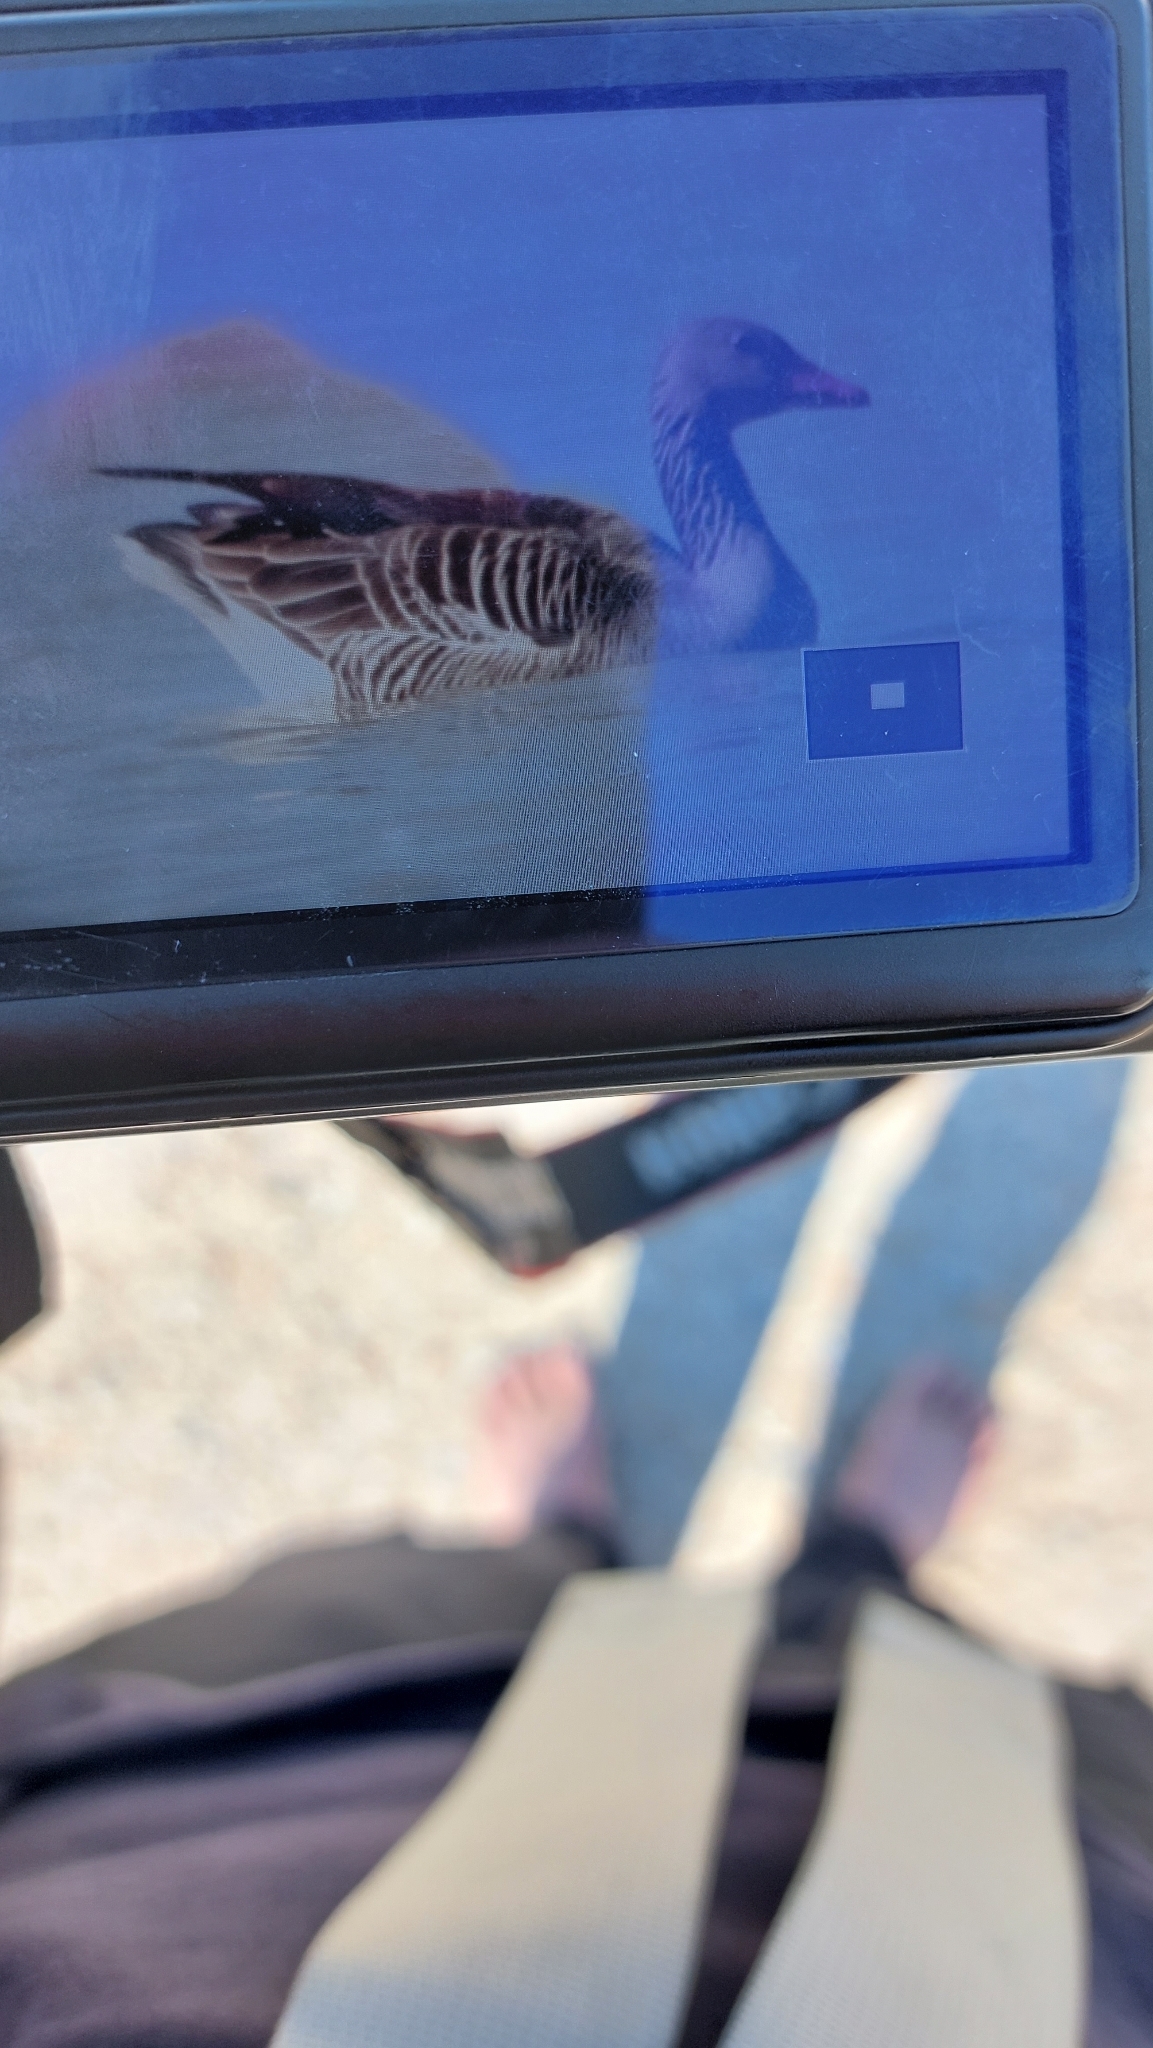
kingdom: Animalia
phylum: Chordata
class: Aves
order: Anseriformes
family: Anatidae
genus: Anser
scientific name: Anser anser
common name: Greylag goose
